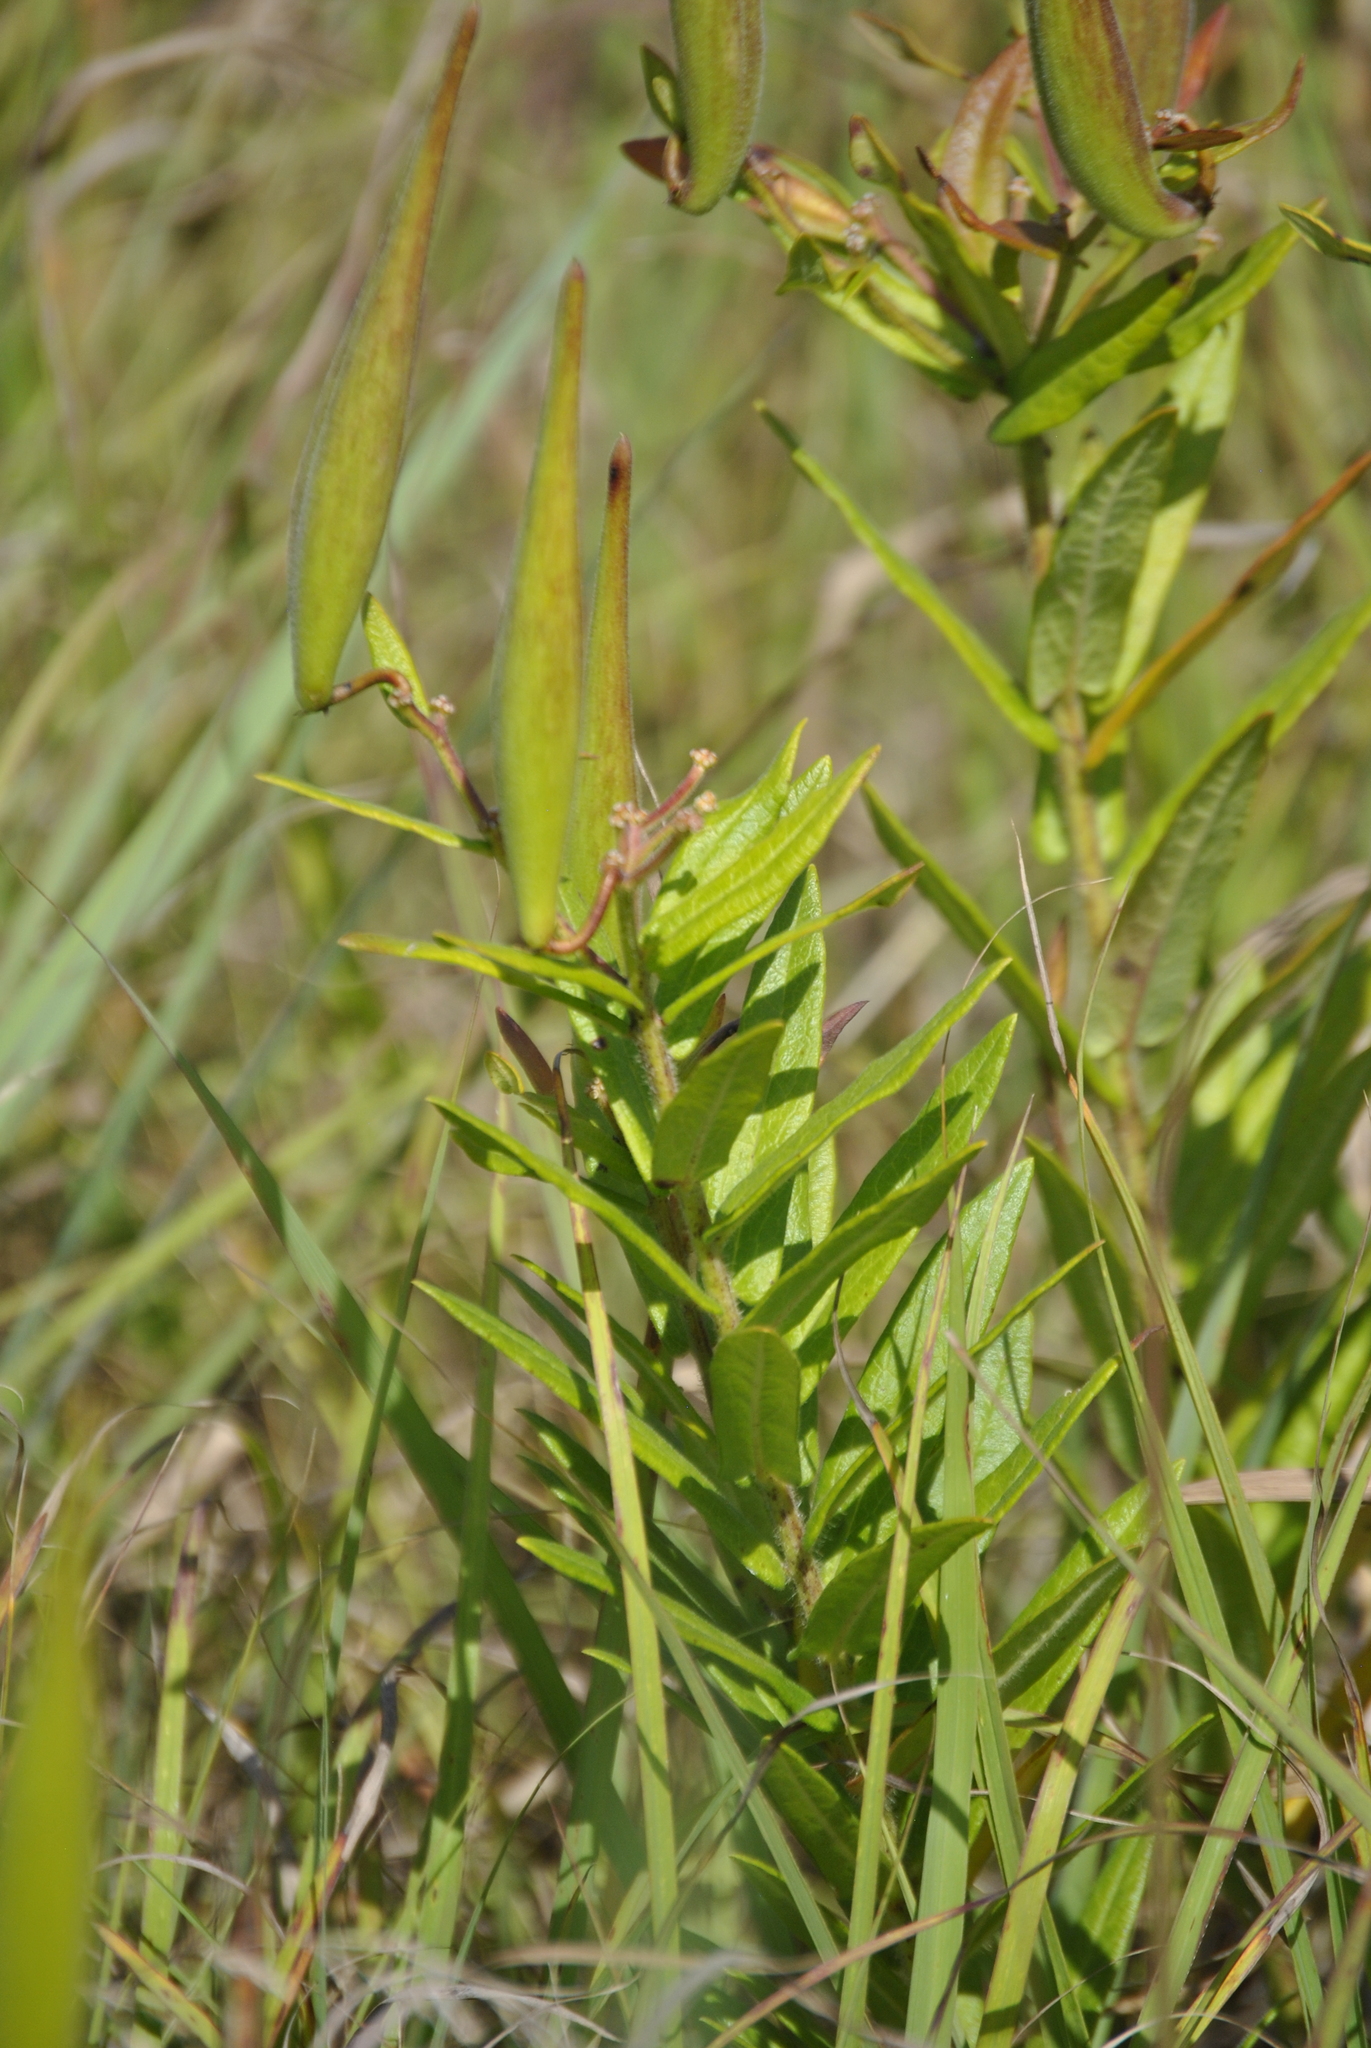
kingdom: Plantae
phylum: Tracheophyta
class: Magnoliopsida
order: Gentianales
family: Apocynaceae
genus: Asclepias
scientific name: Asclepias tuberosa
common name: Butterfly milkweed
